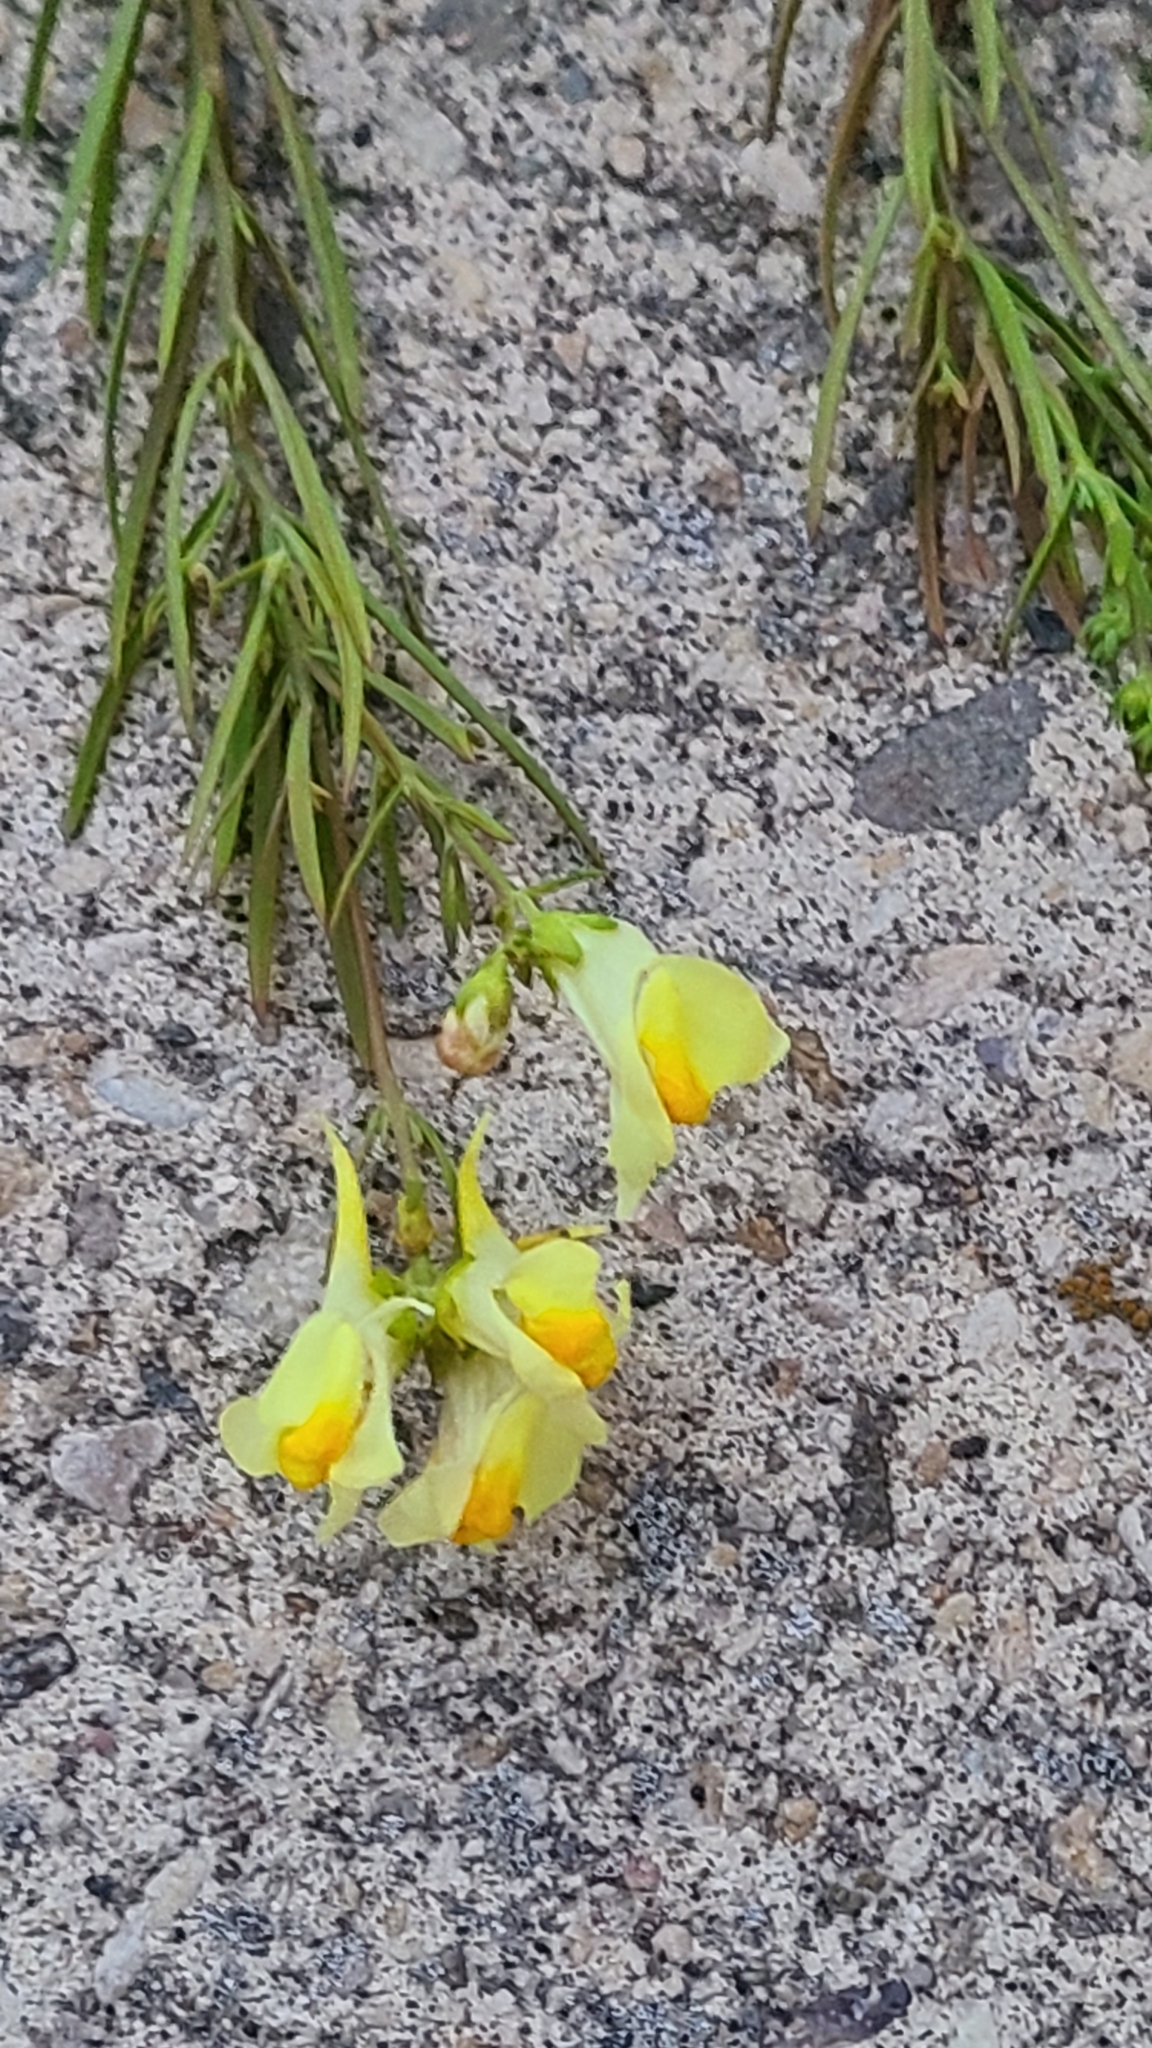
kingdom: Plantae
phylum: Tracheophyta
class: Magnoliopsida
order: Lamiales
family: Plantaginaceae
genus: Linaria
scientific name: Linaria vulgaris
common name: Butter and eggs
